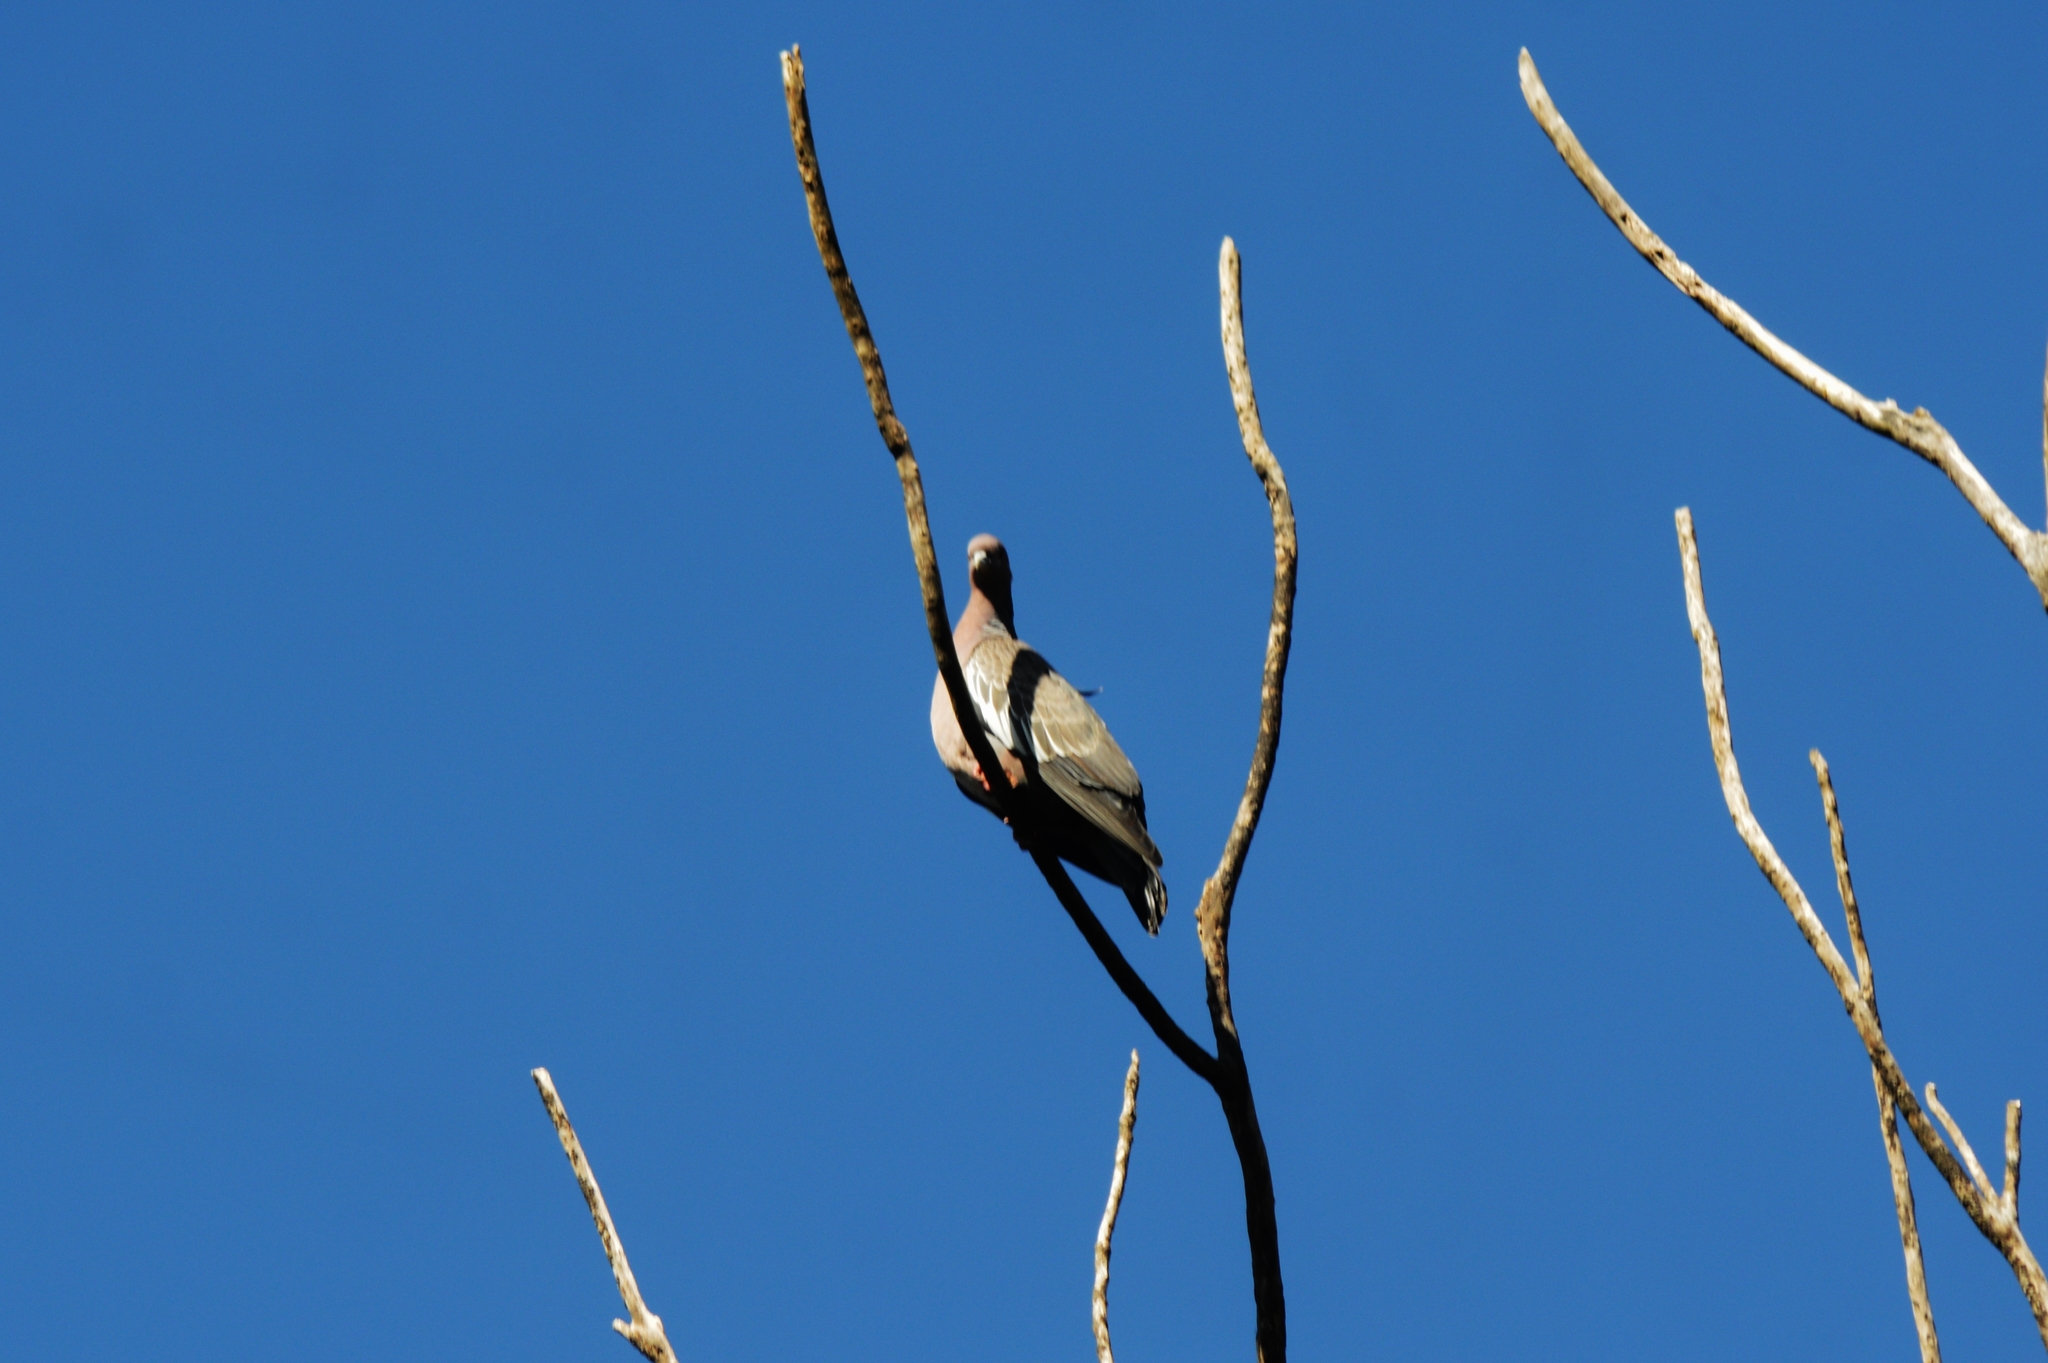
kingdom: Animalia
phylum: Chordata
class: Aves
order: Columbiformes
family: Columbidae
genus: Patagioenas
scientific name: Patagioenas picazuro
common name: Picazuro pigeon
